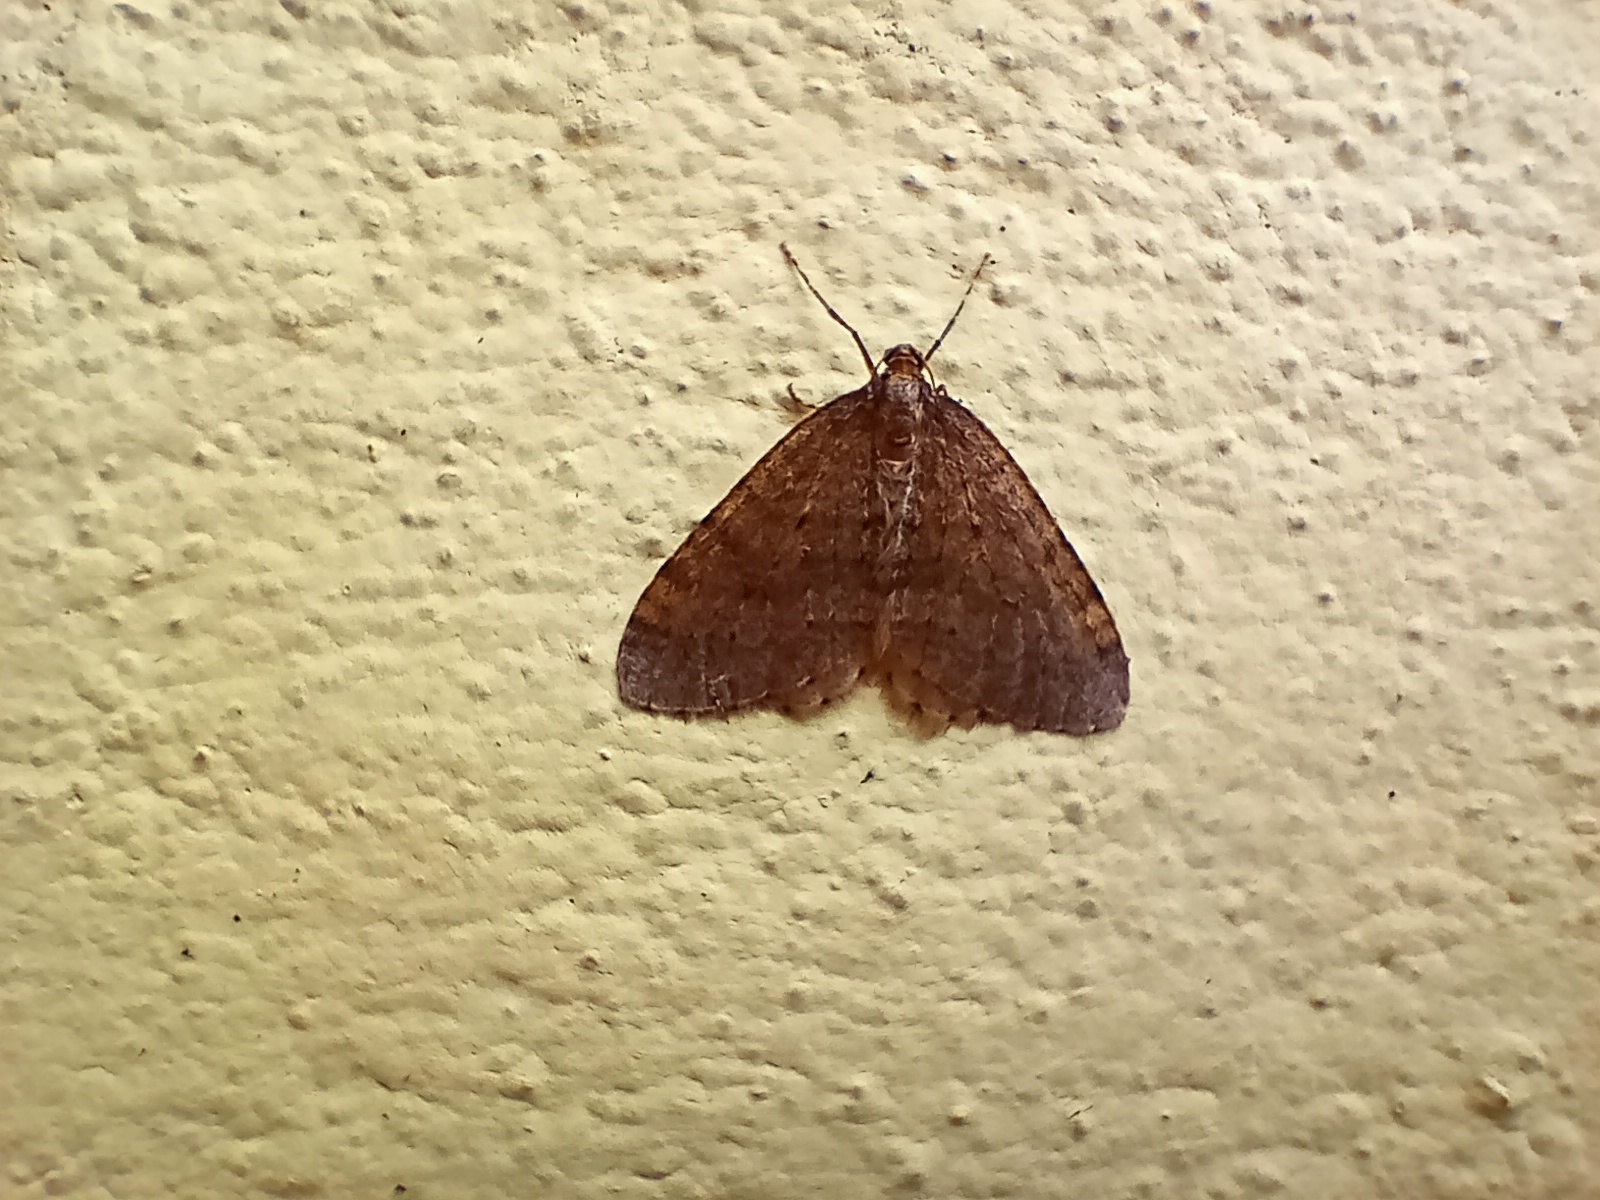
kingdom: Animalia
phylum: Arthropoda
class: Insecta
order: Lepidoptera
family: Geometridae
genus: Operophtera
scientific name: Operophtera brumata
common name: Winter moth
